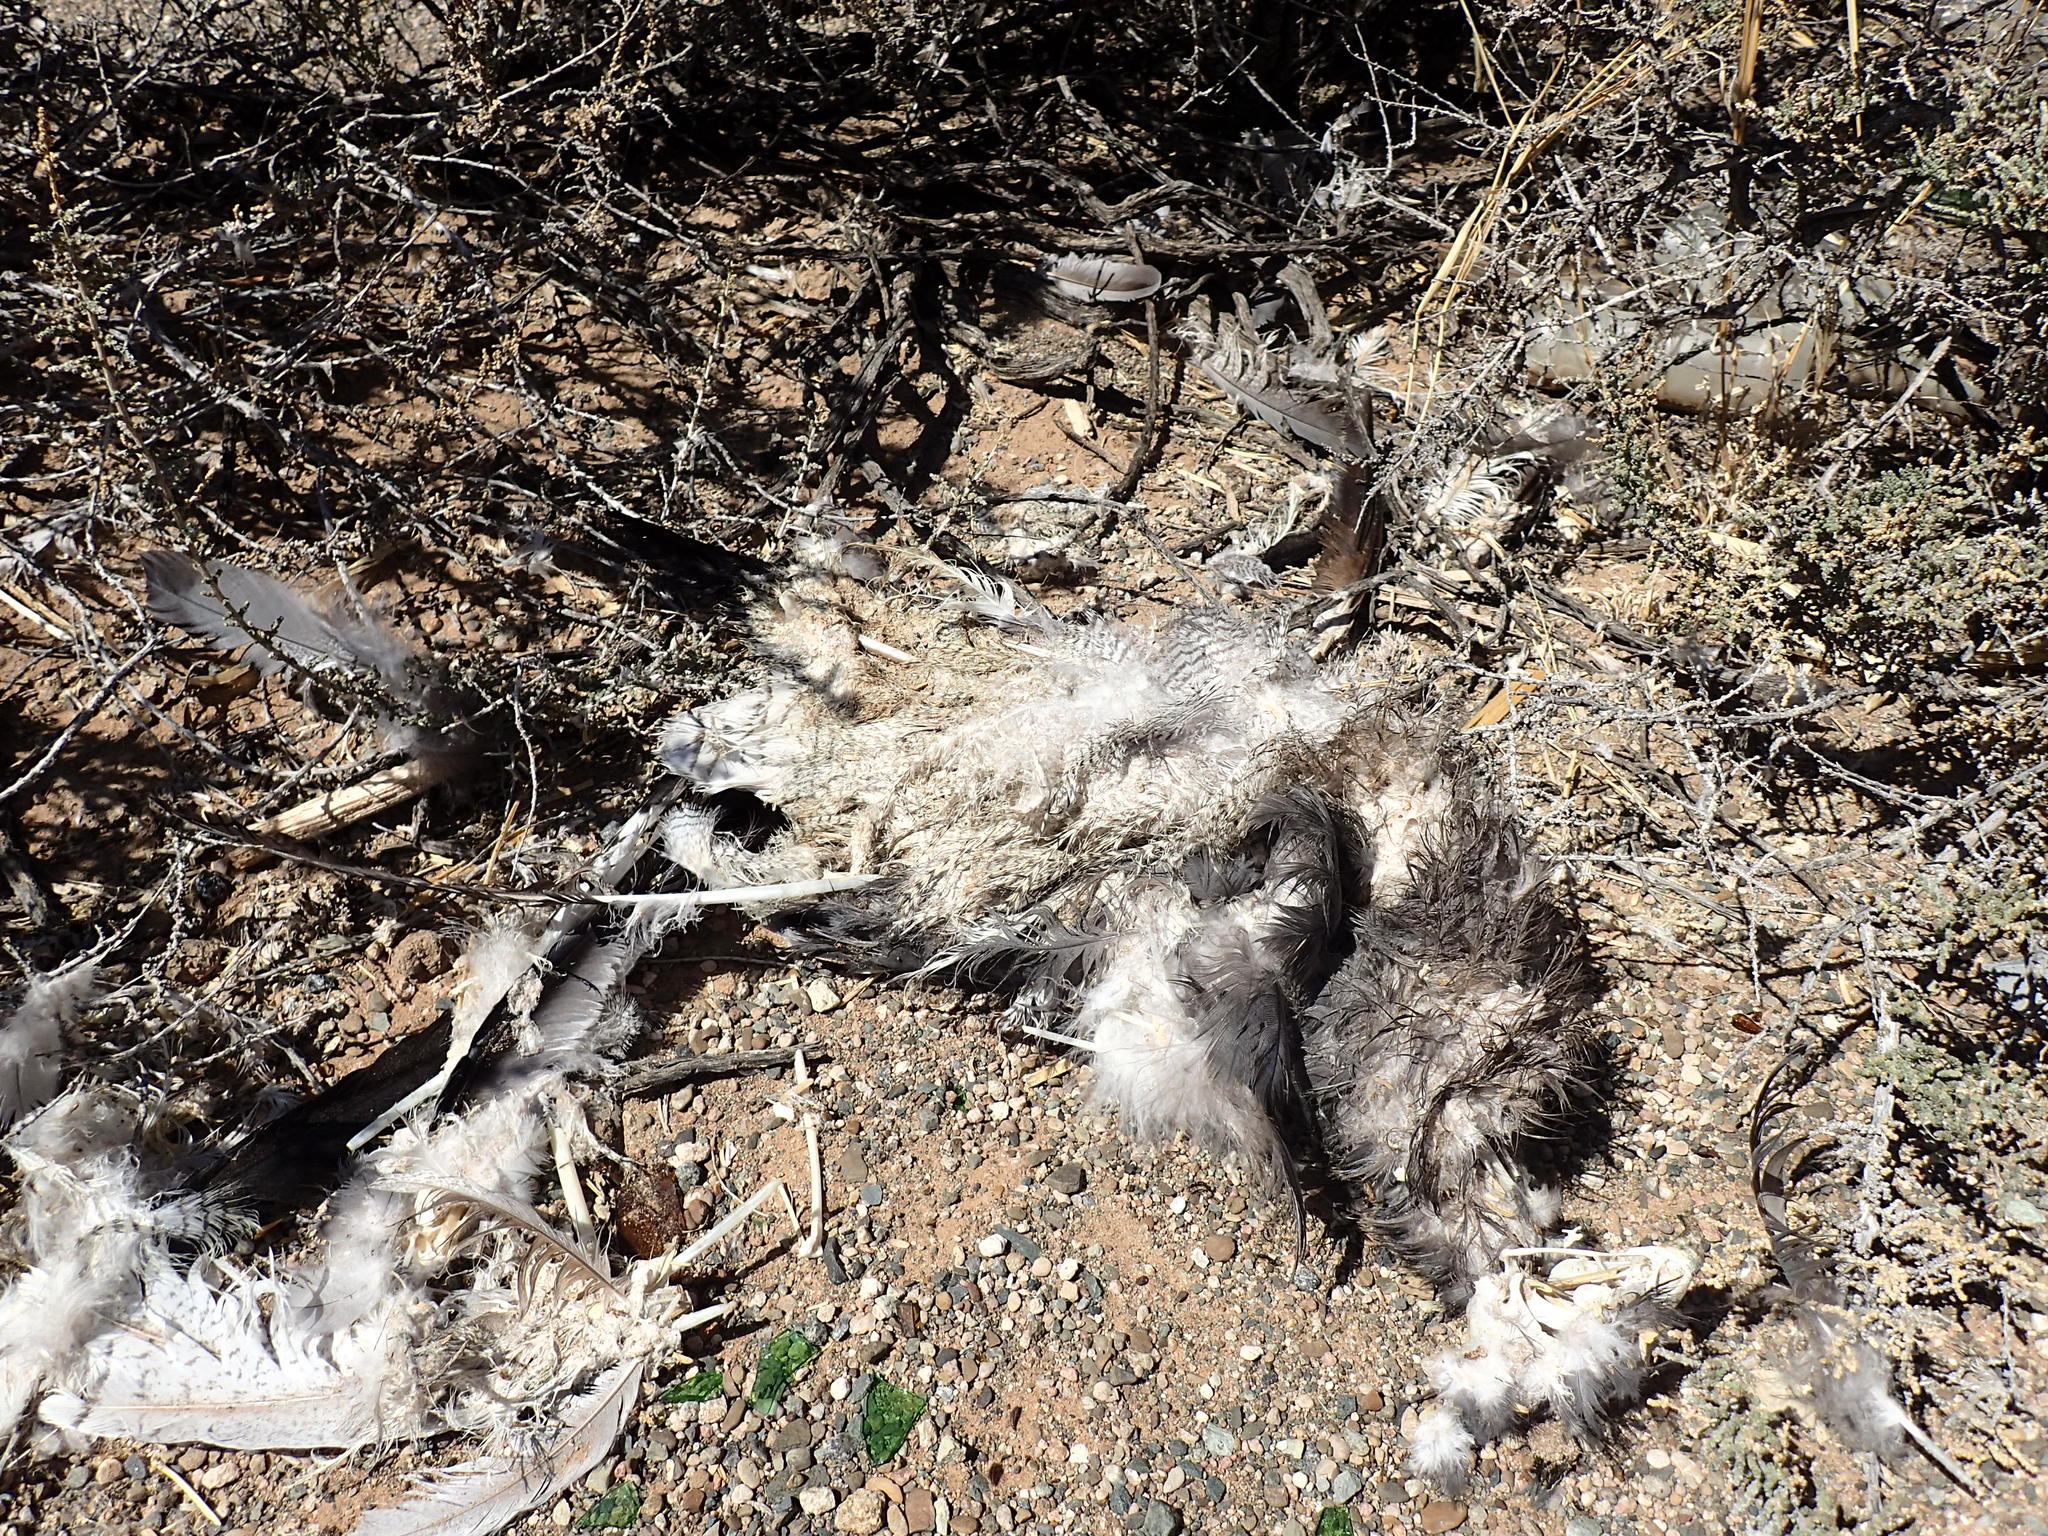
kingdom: Animalia
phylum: Chordata
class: Aves
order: Accipitriformes
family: Accipitridae
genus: Melierax
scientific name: Melierax canorus
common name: Pale chanting-goshawk
